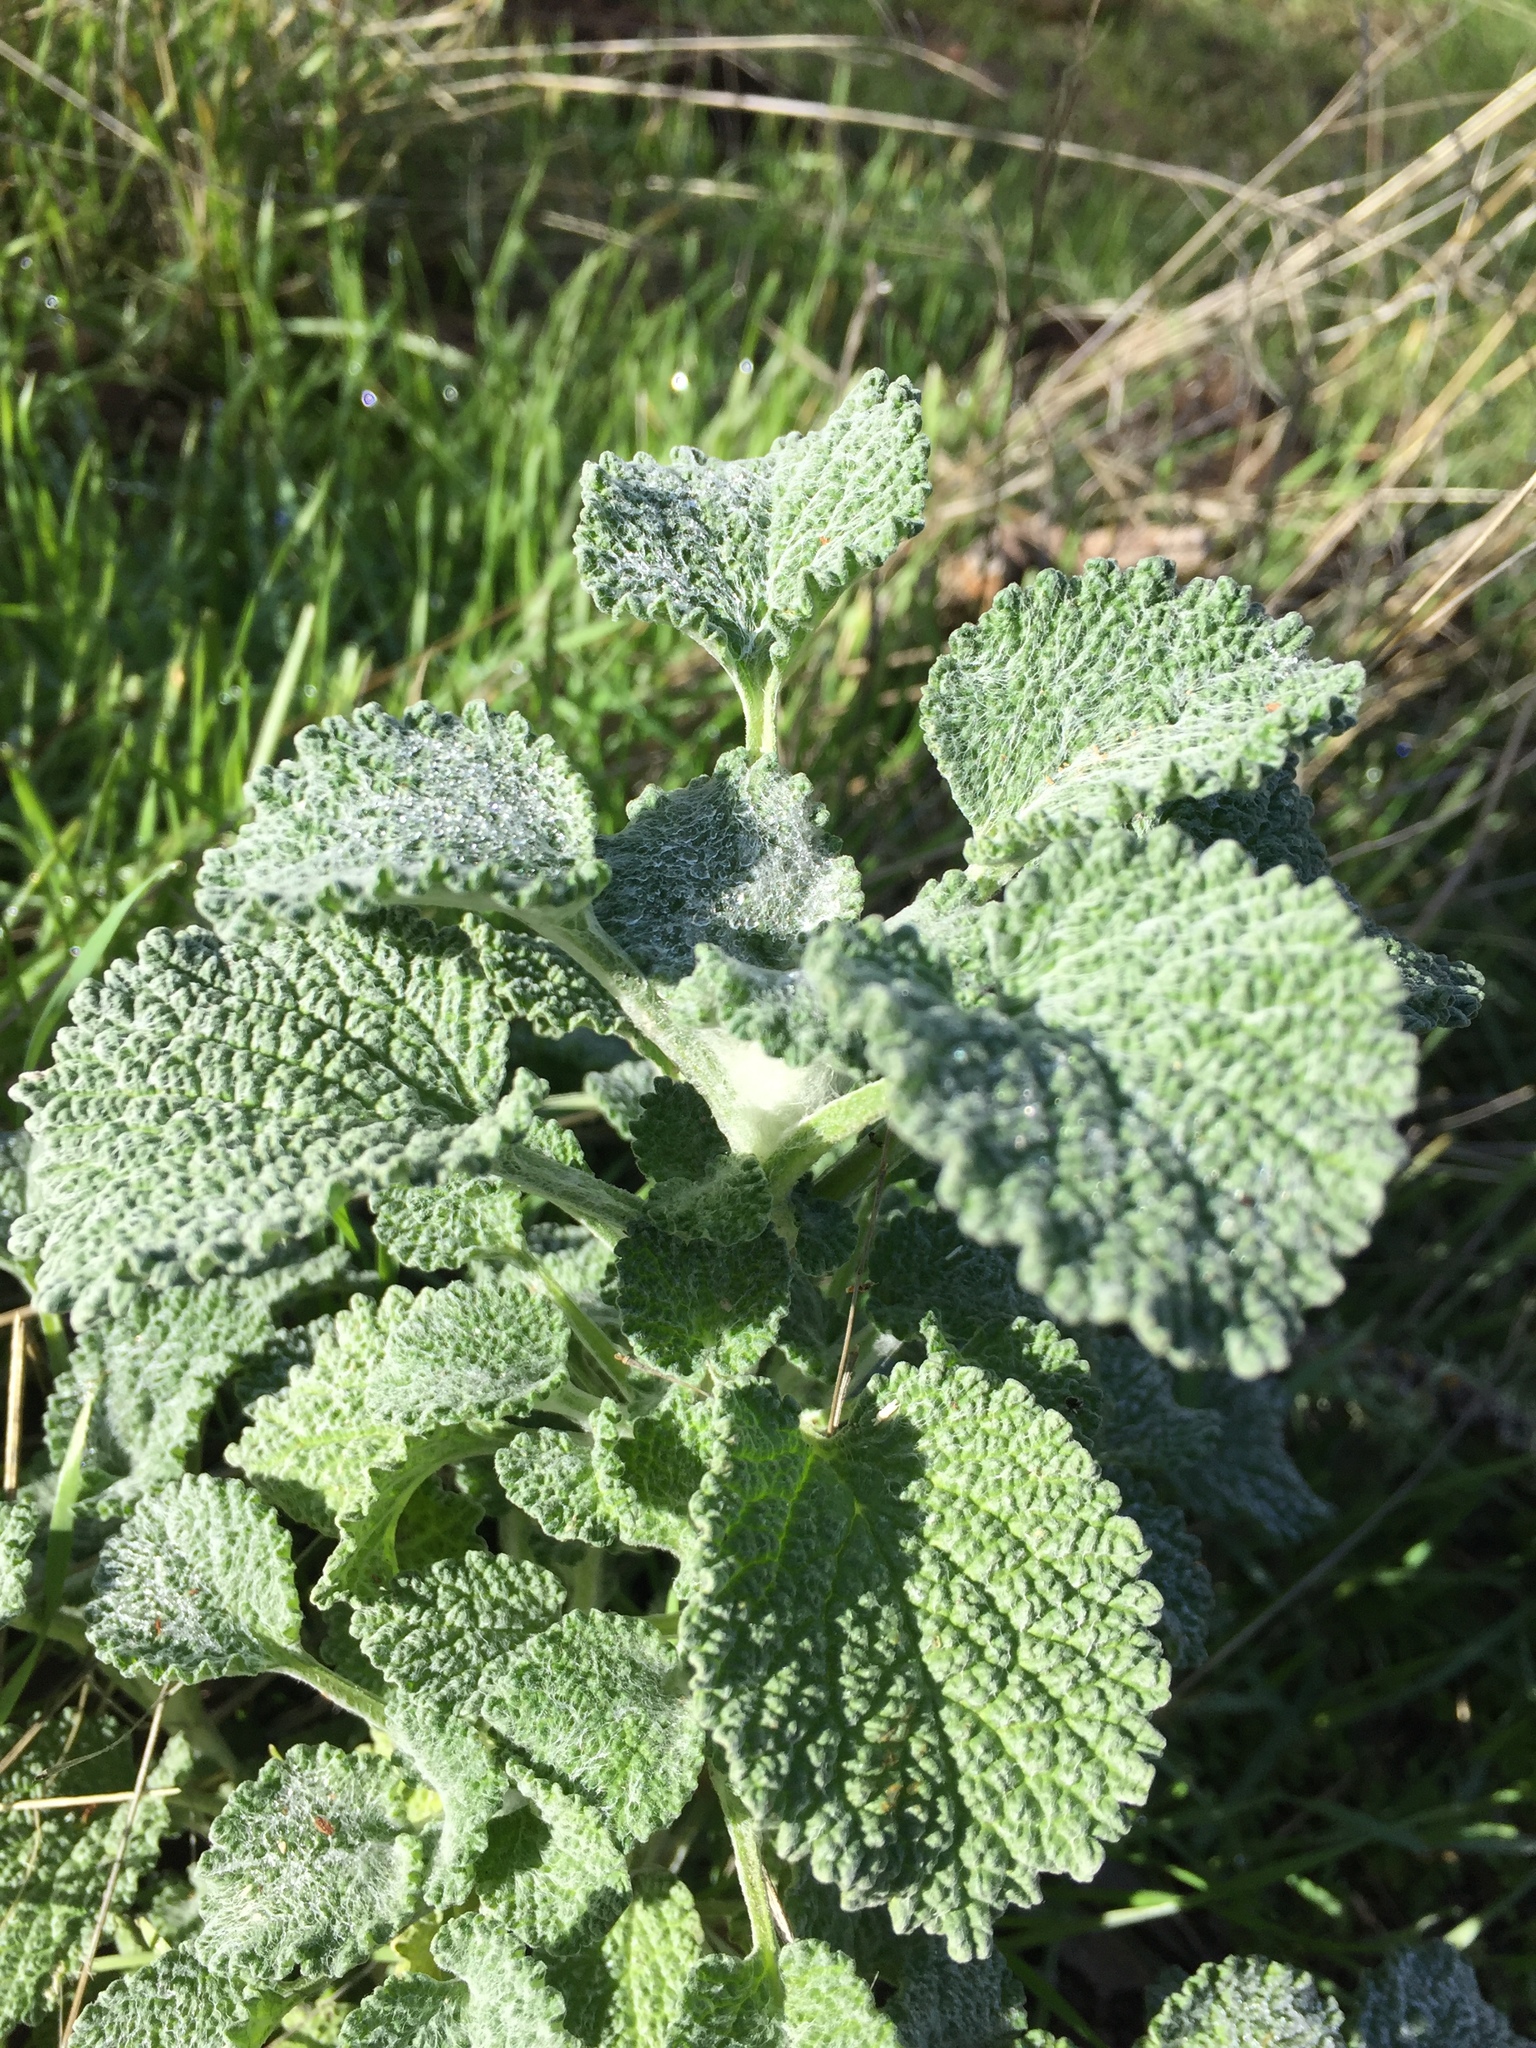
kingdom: Plantae
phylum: Tracheophyta
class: Magnoliopsida
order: Lamiales
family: Lamiaceae
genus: Marrubium
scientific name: Marrubium vulgare
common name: Horehound
